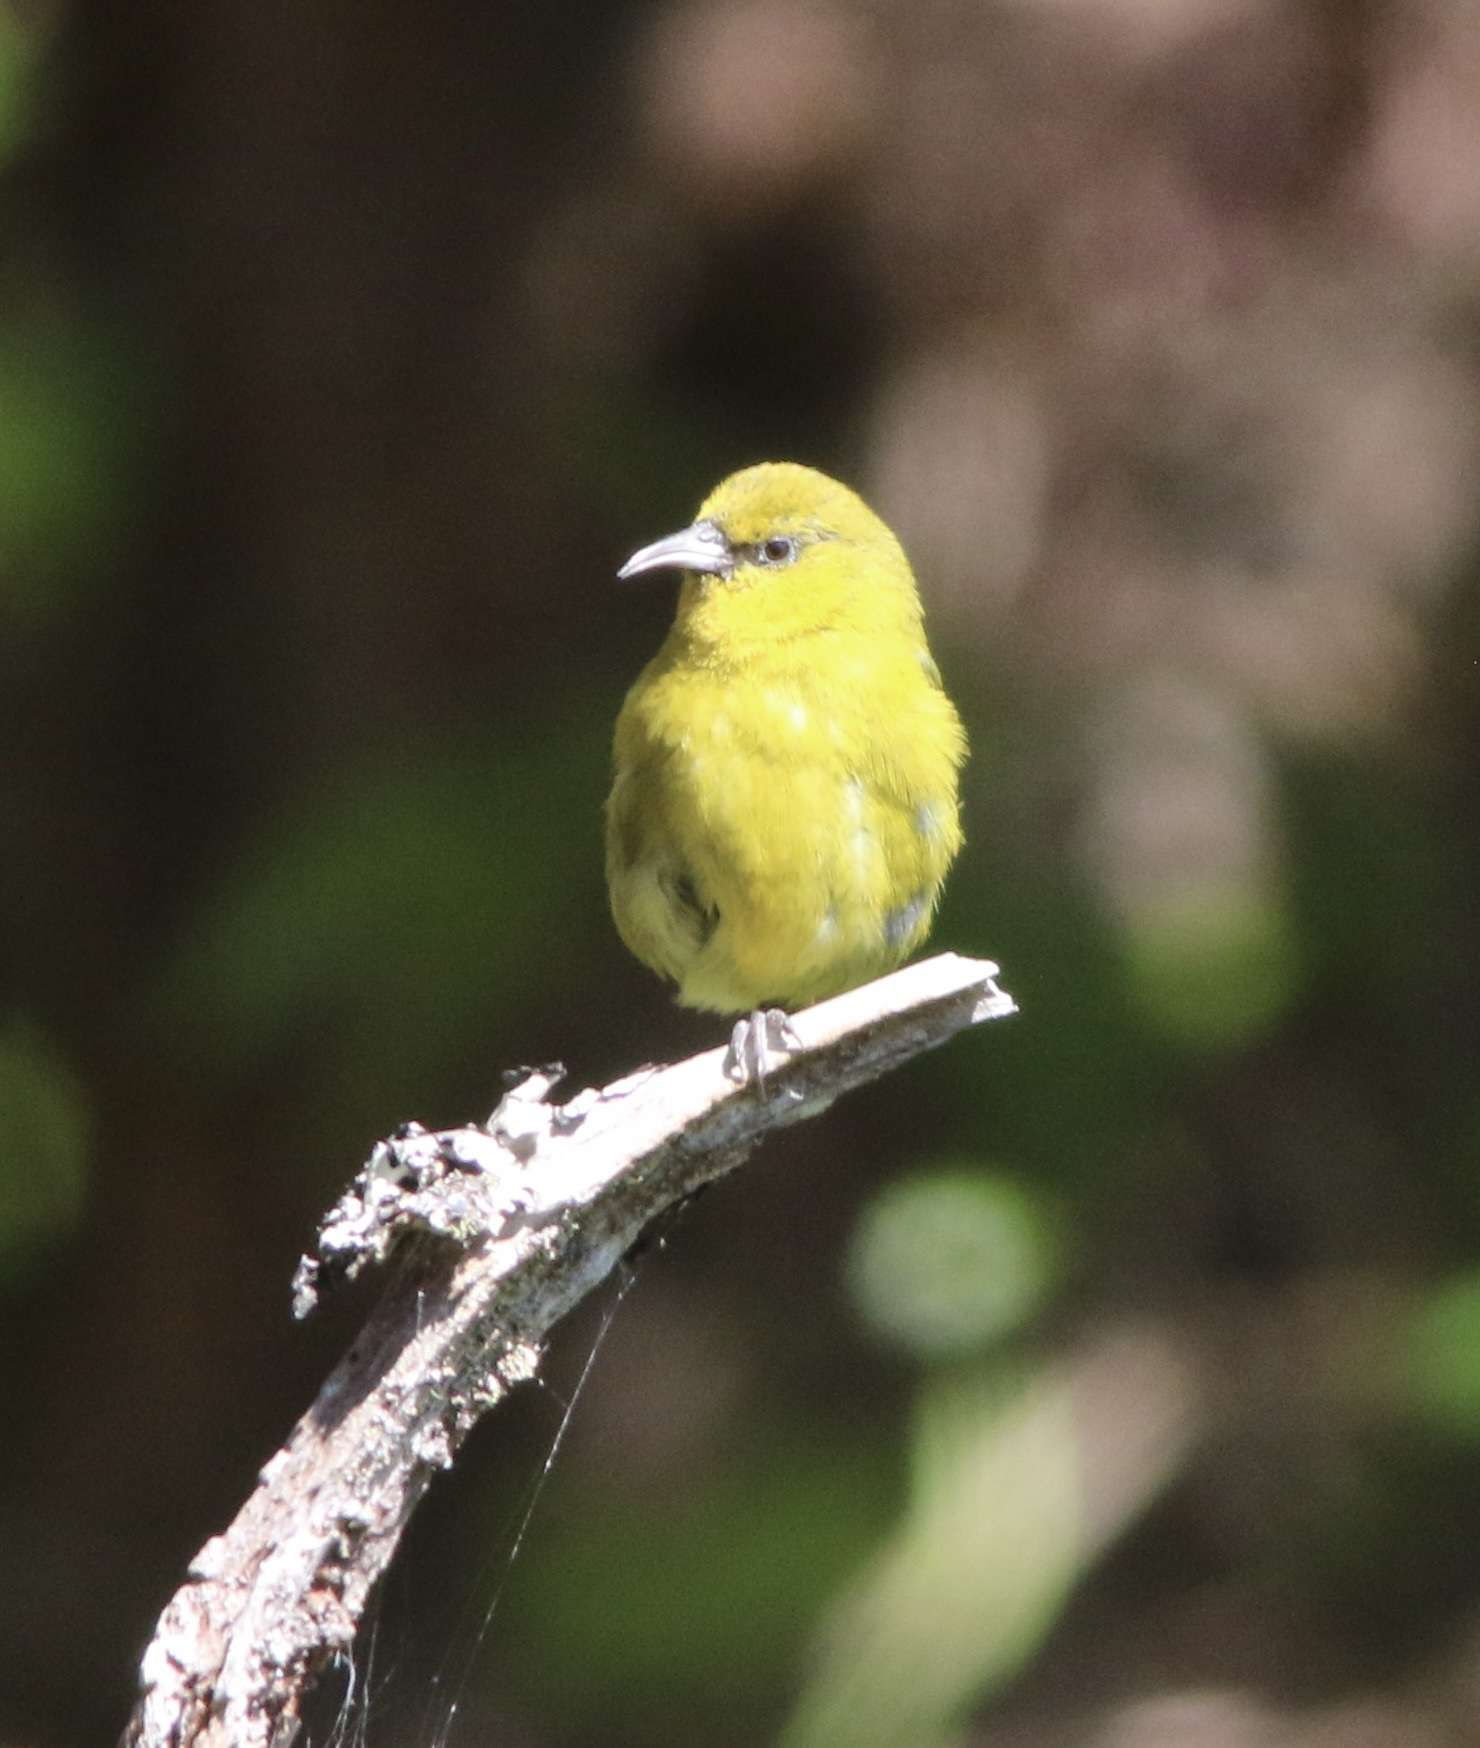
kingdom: Animalia
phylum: Chordata
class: Aves
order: Passeriformes
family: Fringillidae
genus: Chlorodrepanis
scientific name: Chlorodrepanis virens
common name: Hawaii amakihi
